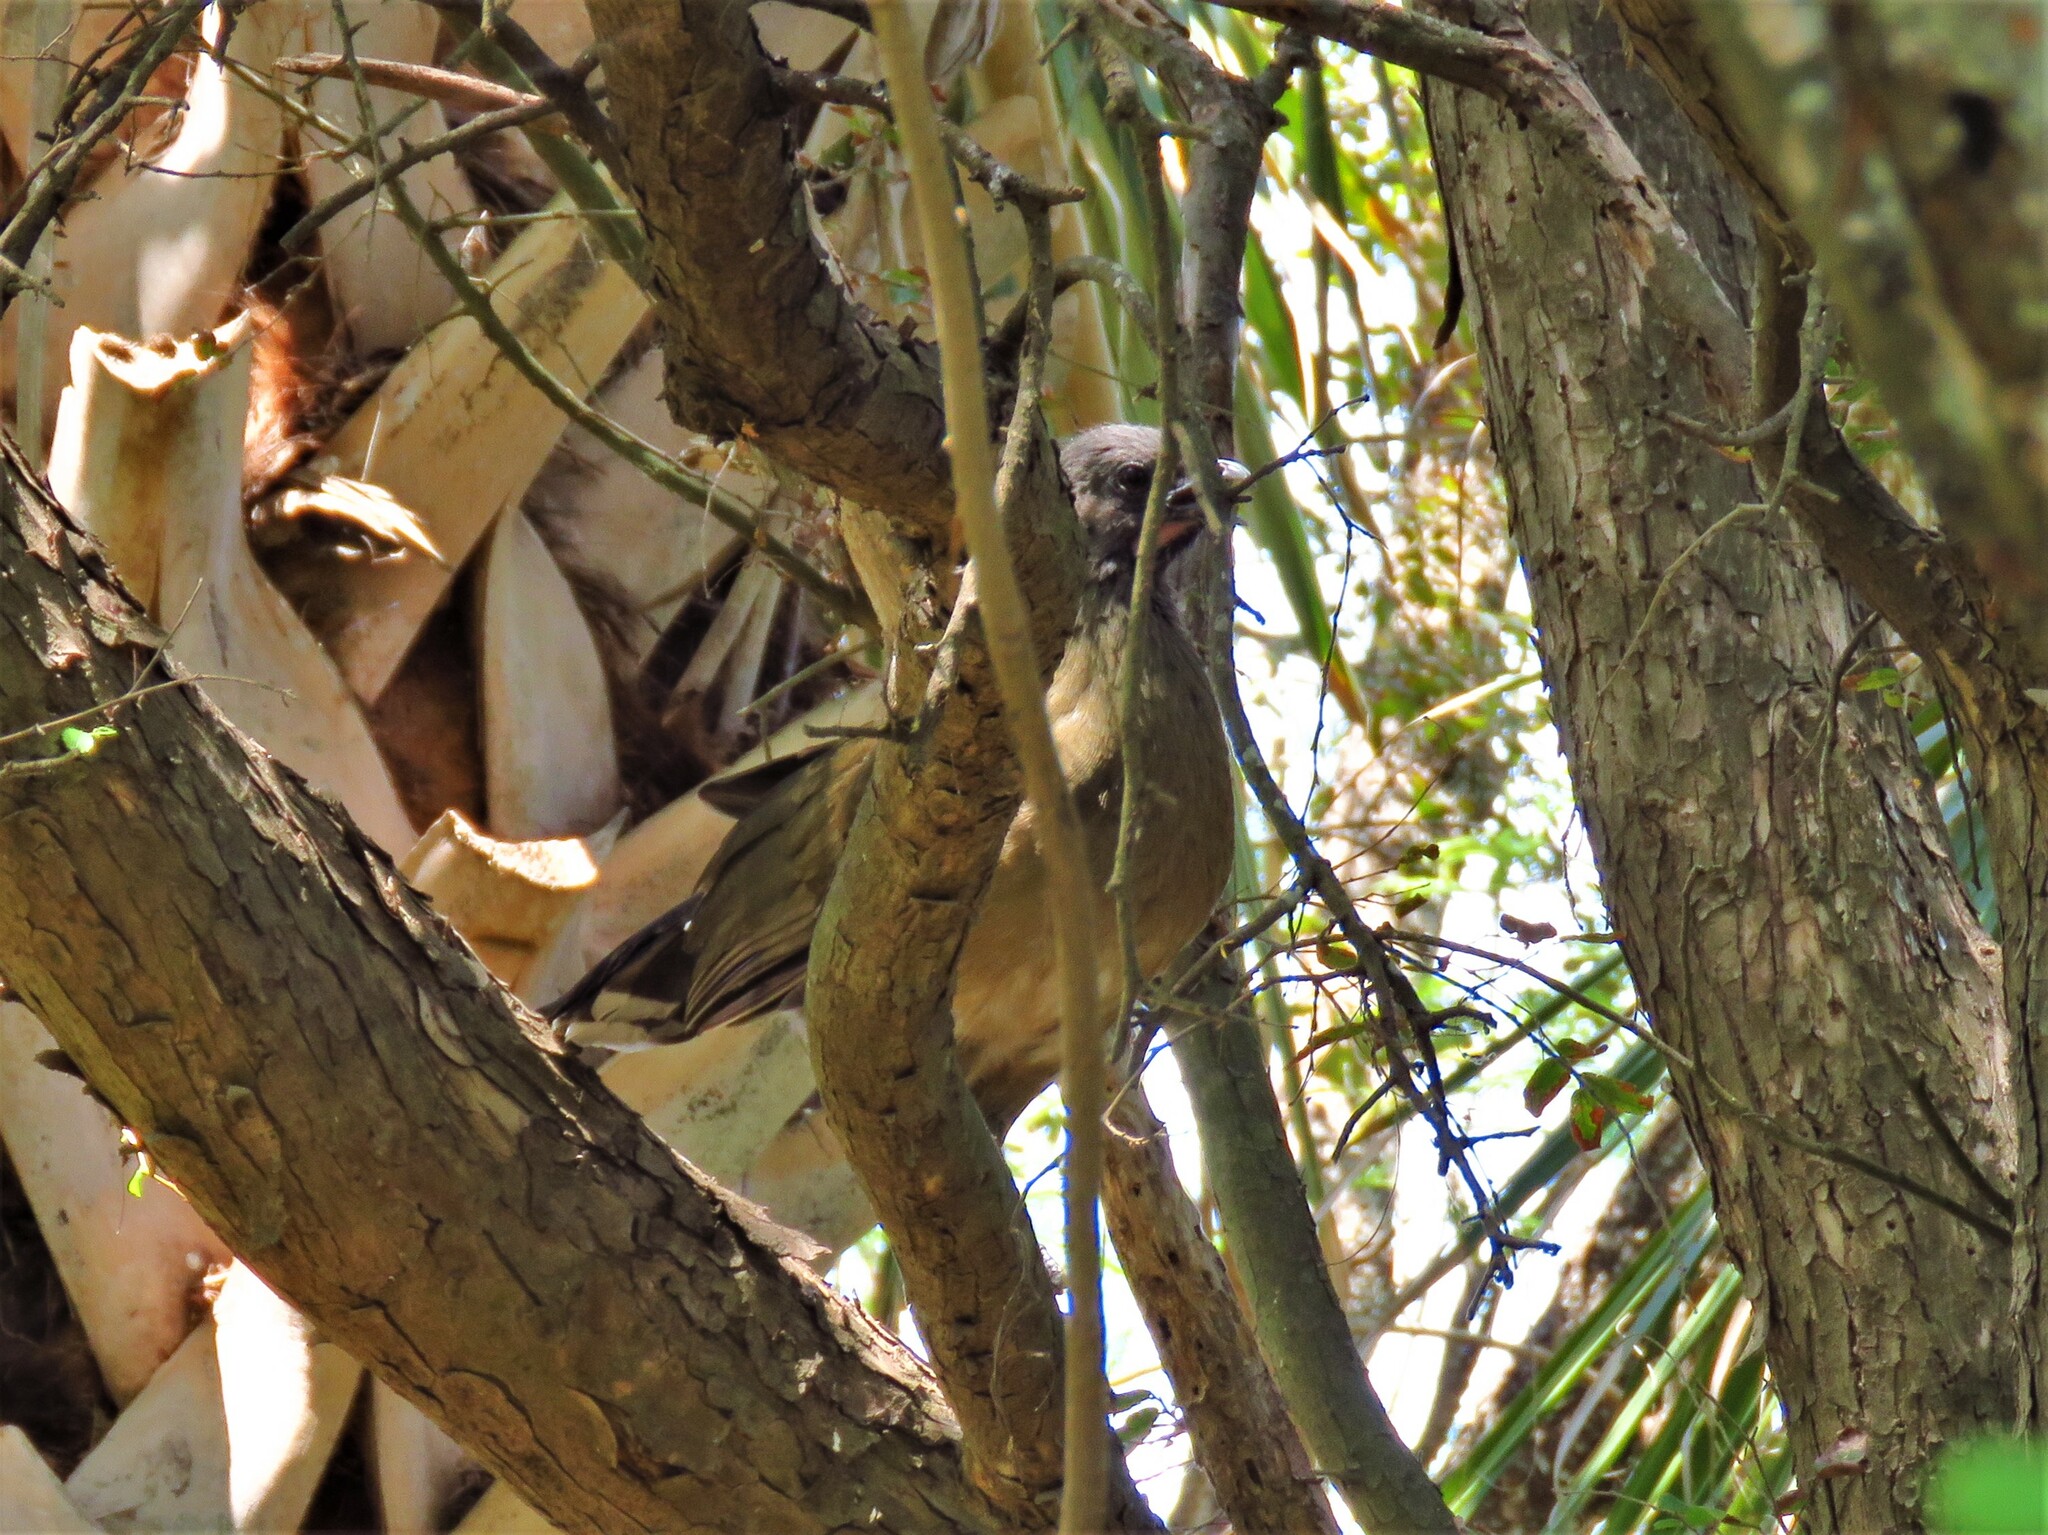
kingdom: Animalia
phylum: Chordata
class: Aves
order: Galliformes
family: Cracidae
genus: Ortalis
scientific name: Ortalis vetula
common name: Plain chachalaca
